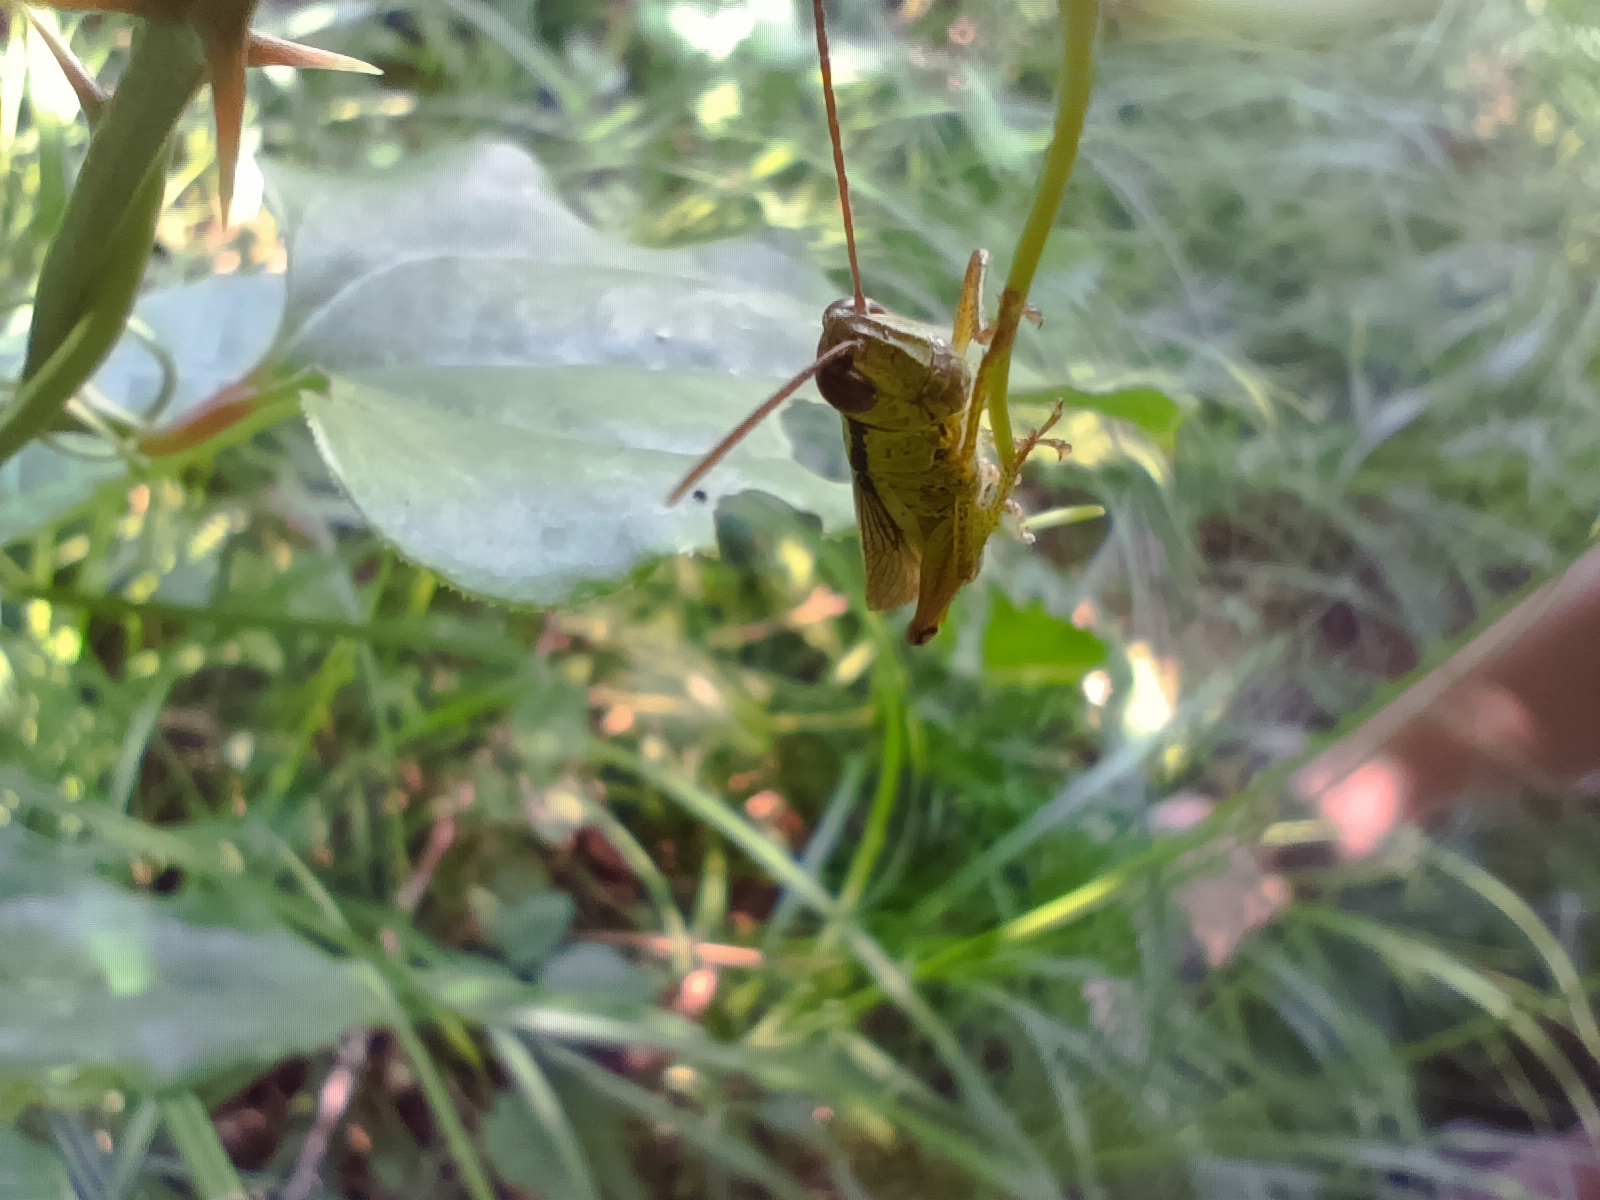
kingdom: Animalia
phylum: Arthropoda
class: Insecta
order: Orthoptera
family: Acrididae
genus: Mecostethus
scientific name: Mecostethus parapleurus
